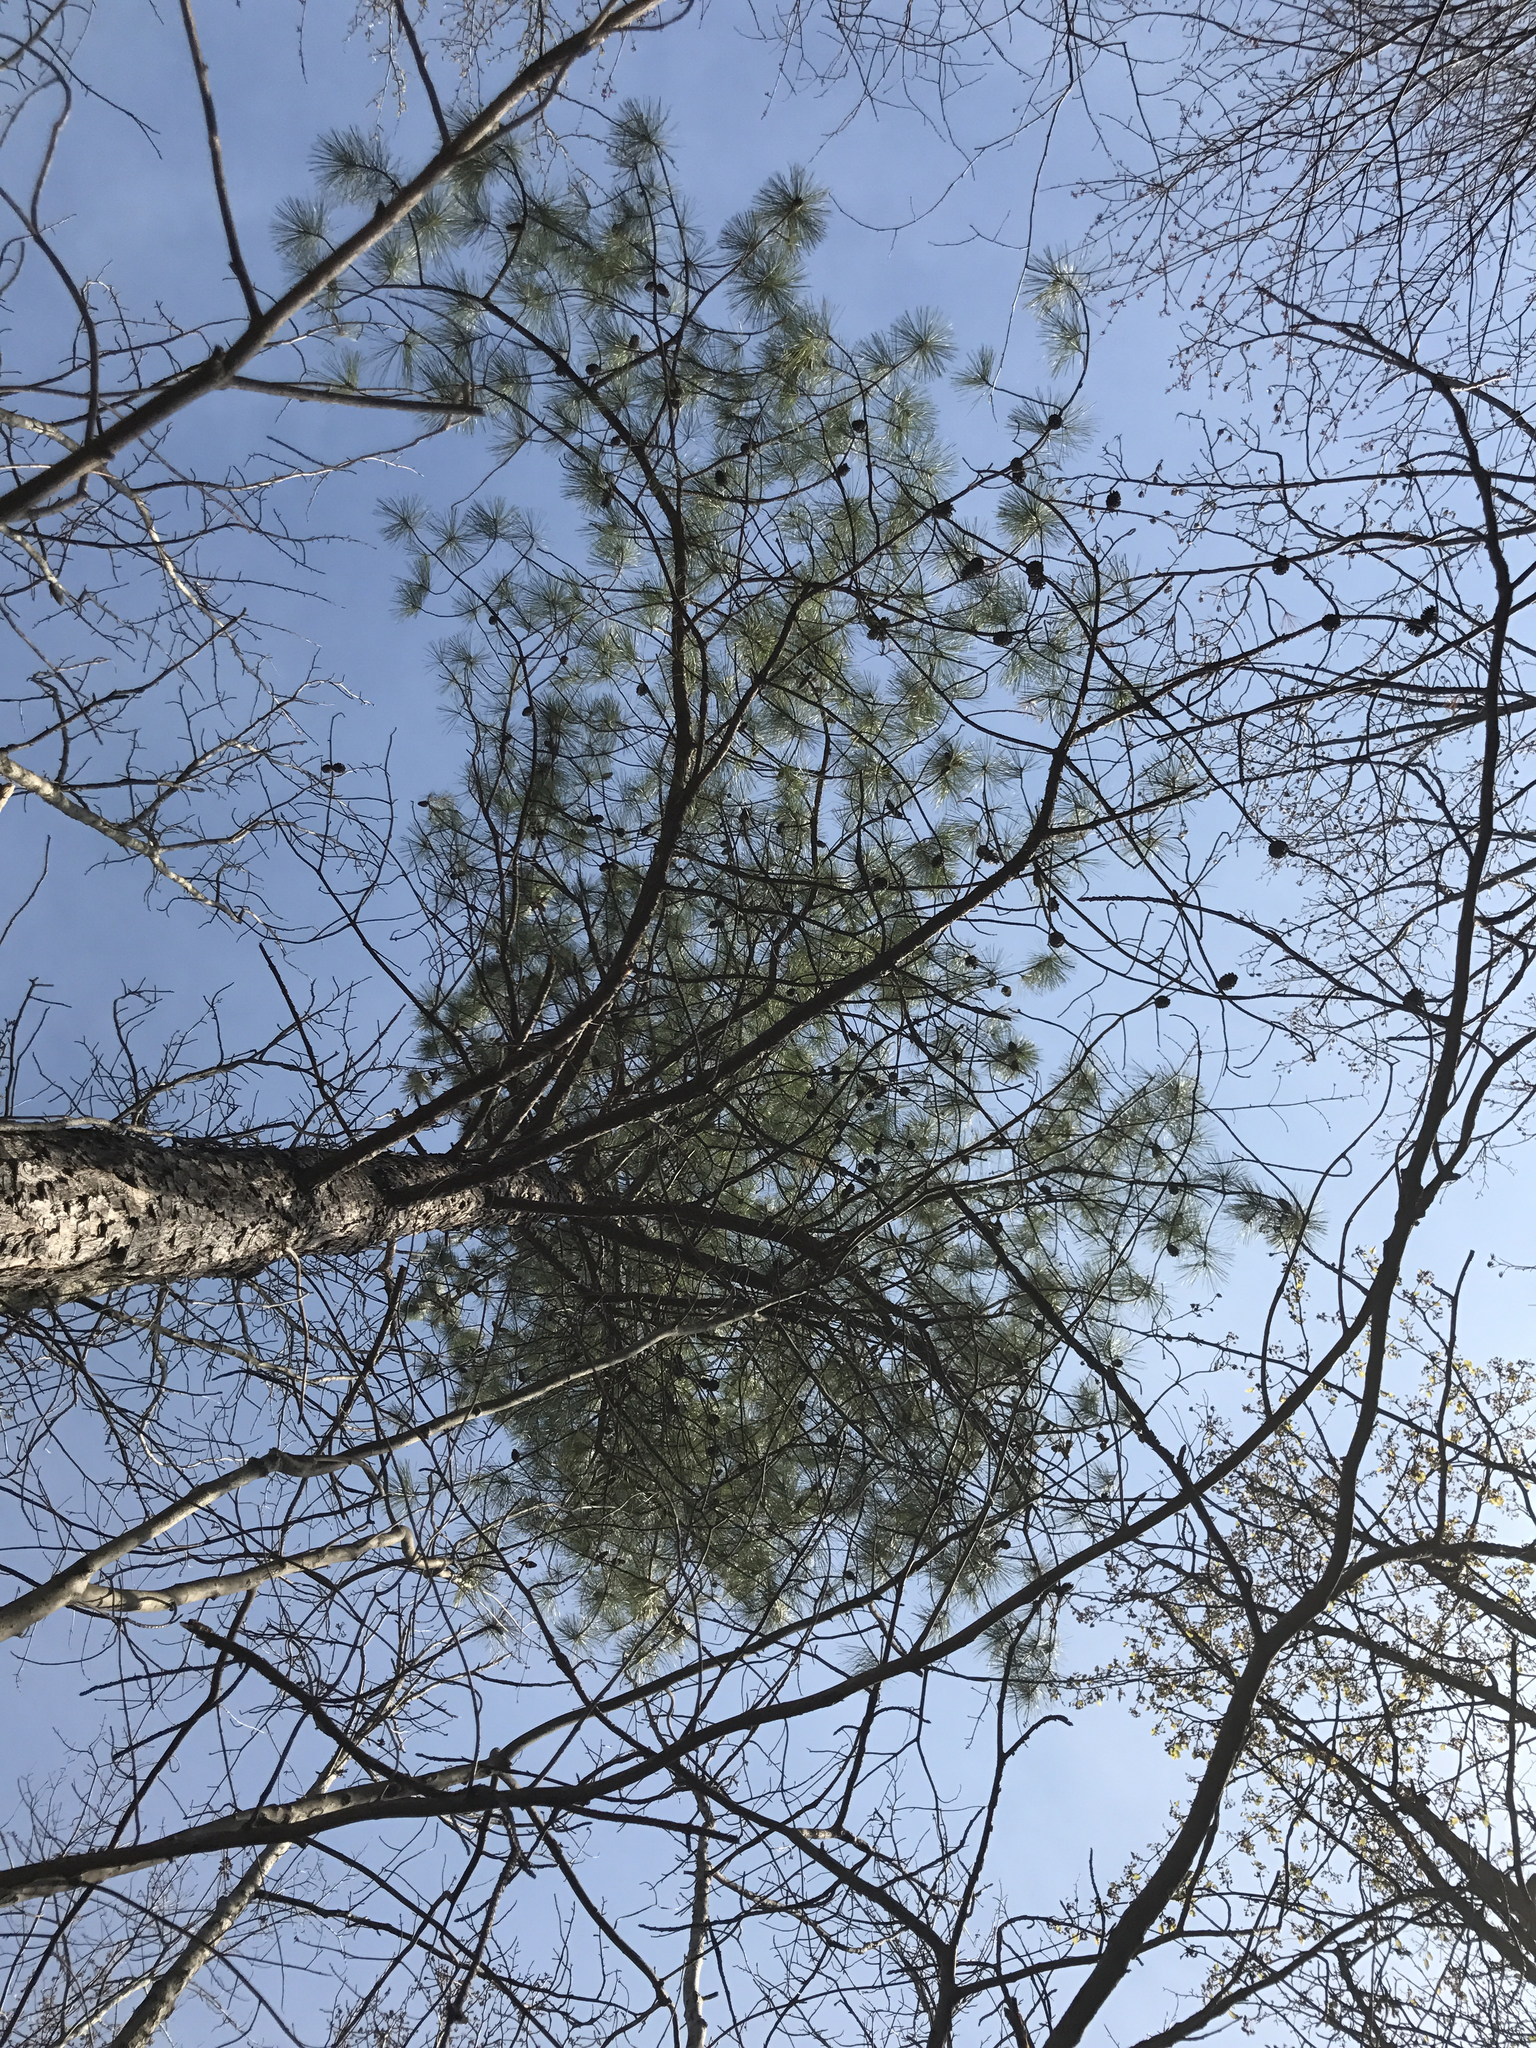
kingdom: Plantae
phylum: Tracheophyta
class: Pinopsida
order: Pinales
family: Pinaceae
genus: Pinus
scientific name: Pinus rigida
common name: Pitch pine
